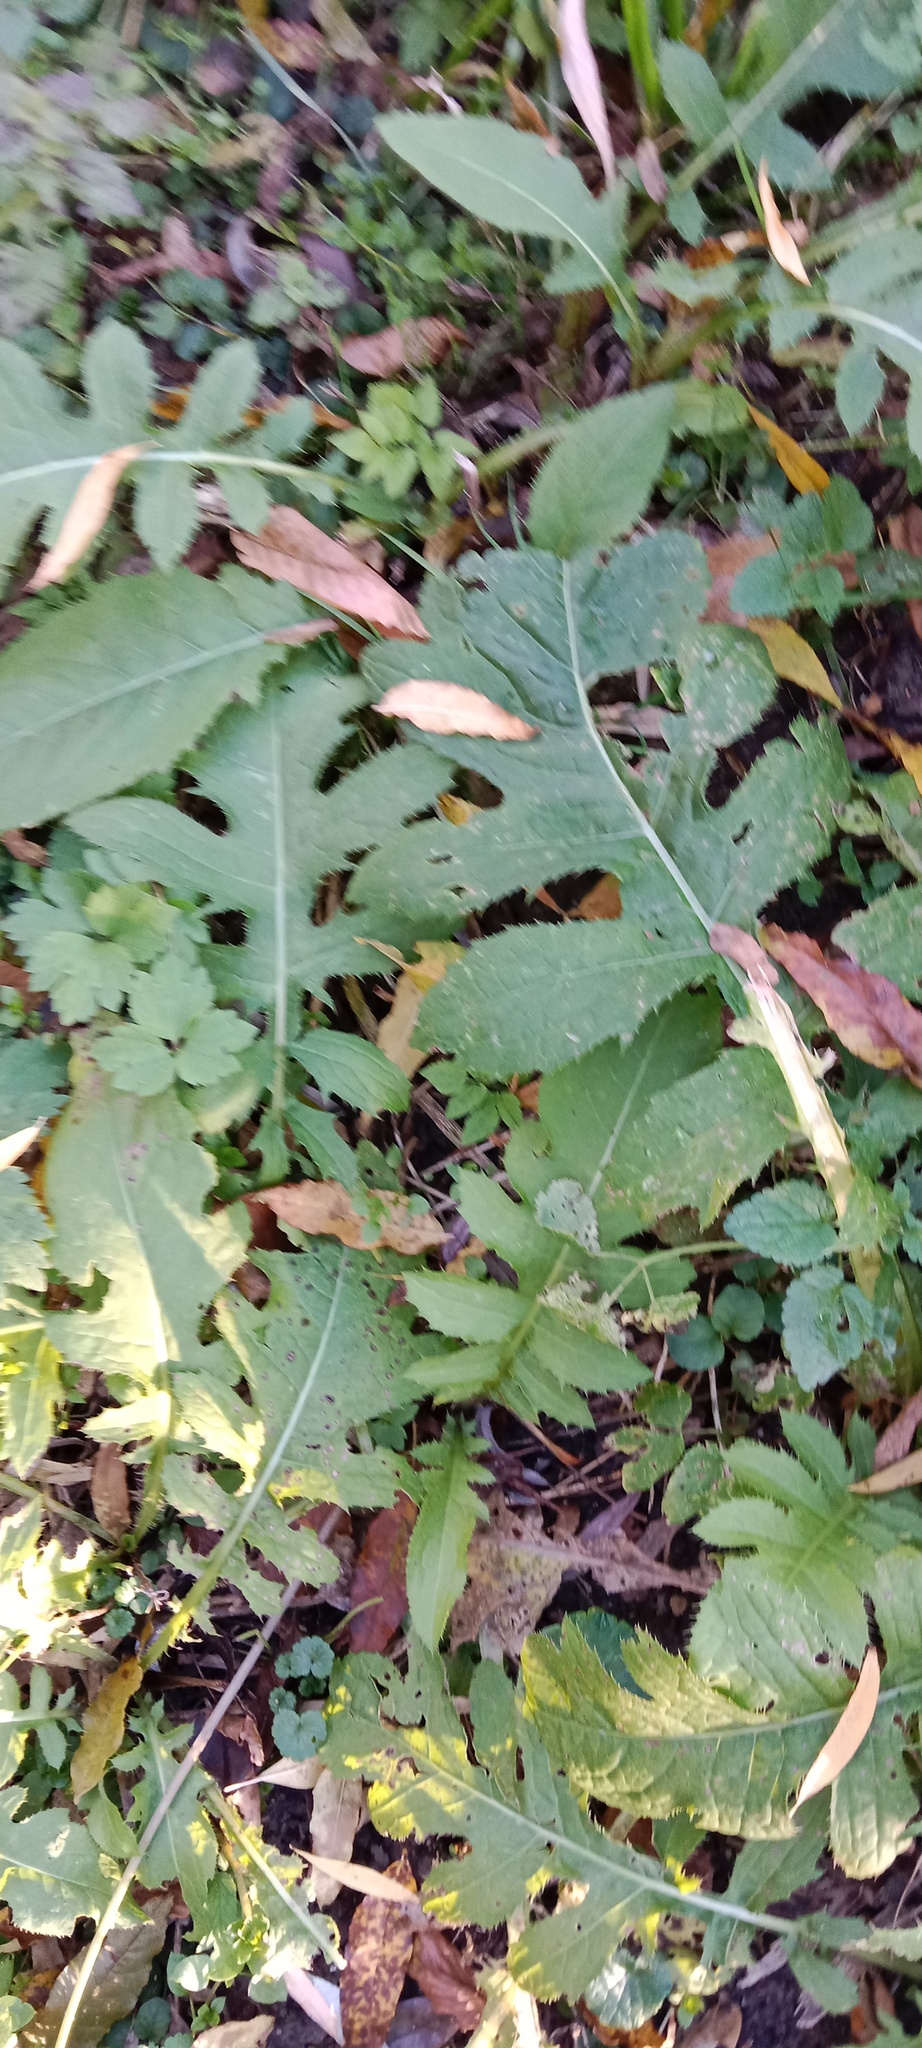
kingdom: Plantae
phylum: Tracheophyta
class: Magnoliopsida
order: Asterales
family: Asteraceae
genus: Cirsium
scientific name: Cirsium oleraceum
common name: Cabbage thistle
